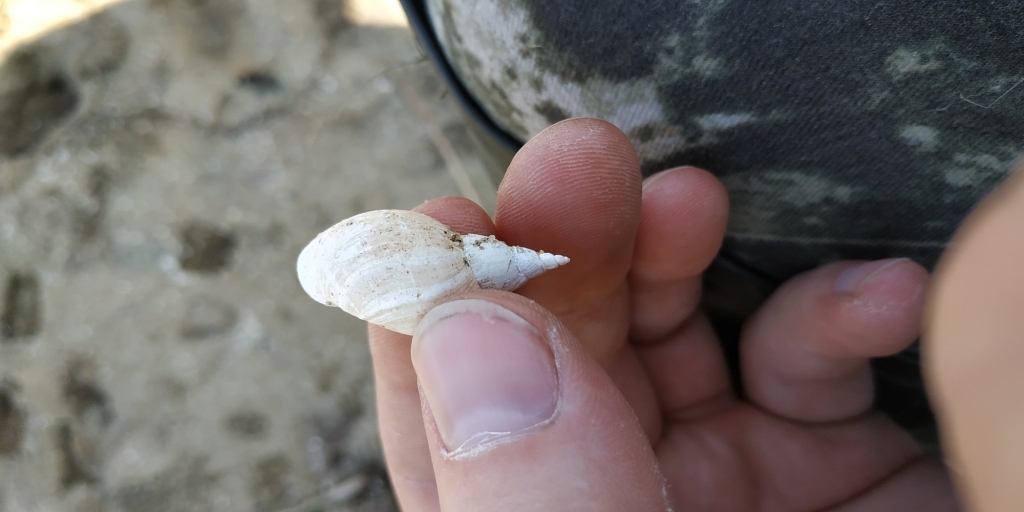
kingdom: Animalia
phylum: Mollusca
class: Gastropoda
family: Lymnaeidae
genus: Lymnaea
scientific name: Lymnaea stagnalis
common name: Great pond snail
